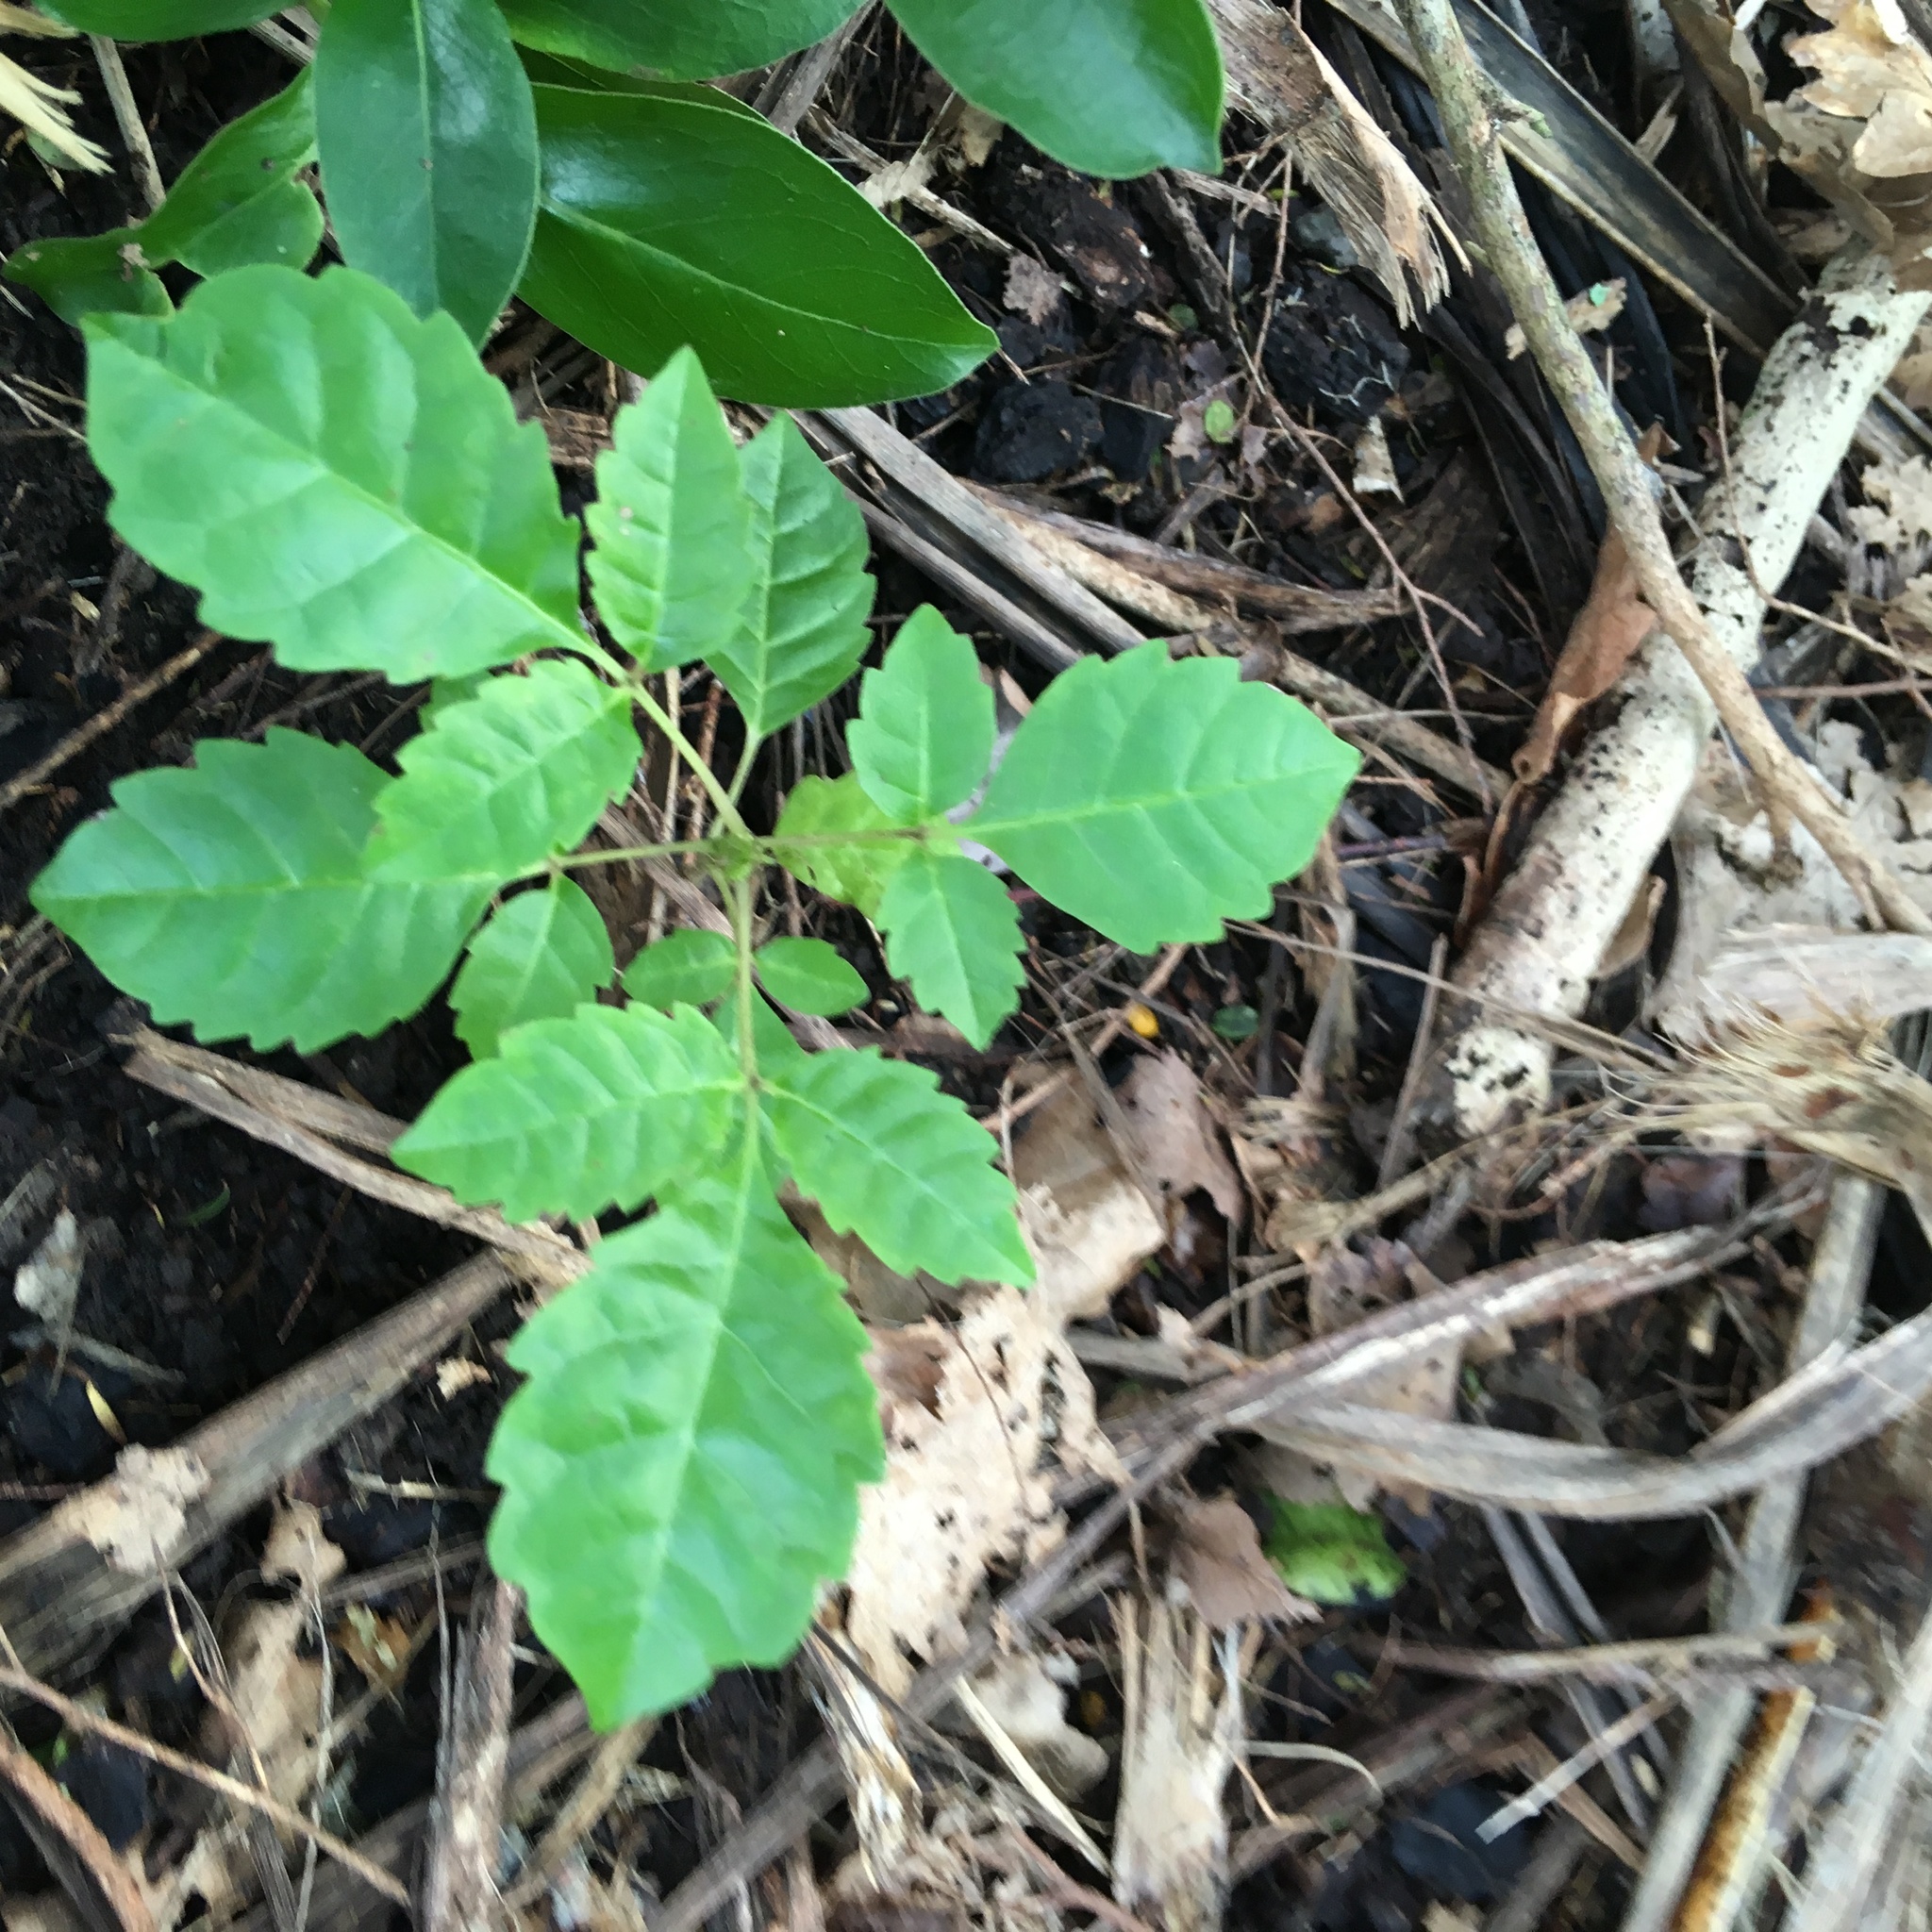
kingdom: Plantae
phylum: Tracheophyta
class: Magnoliopsida
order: Lamiales
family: Lamiaceae
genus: Vitex
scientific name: Vitex lucens
